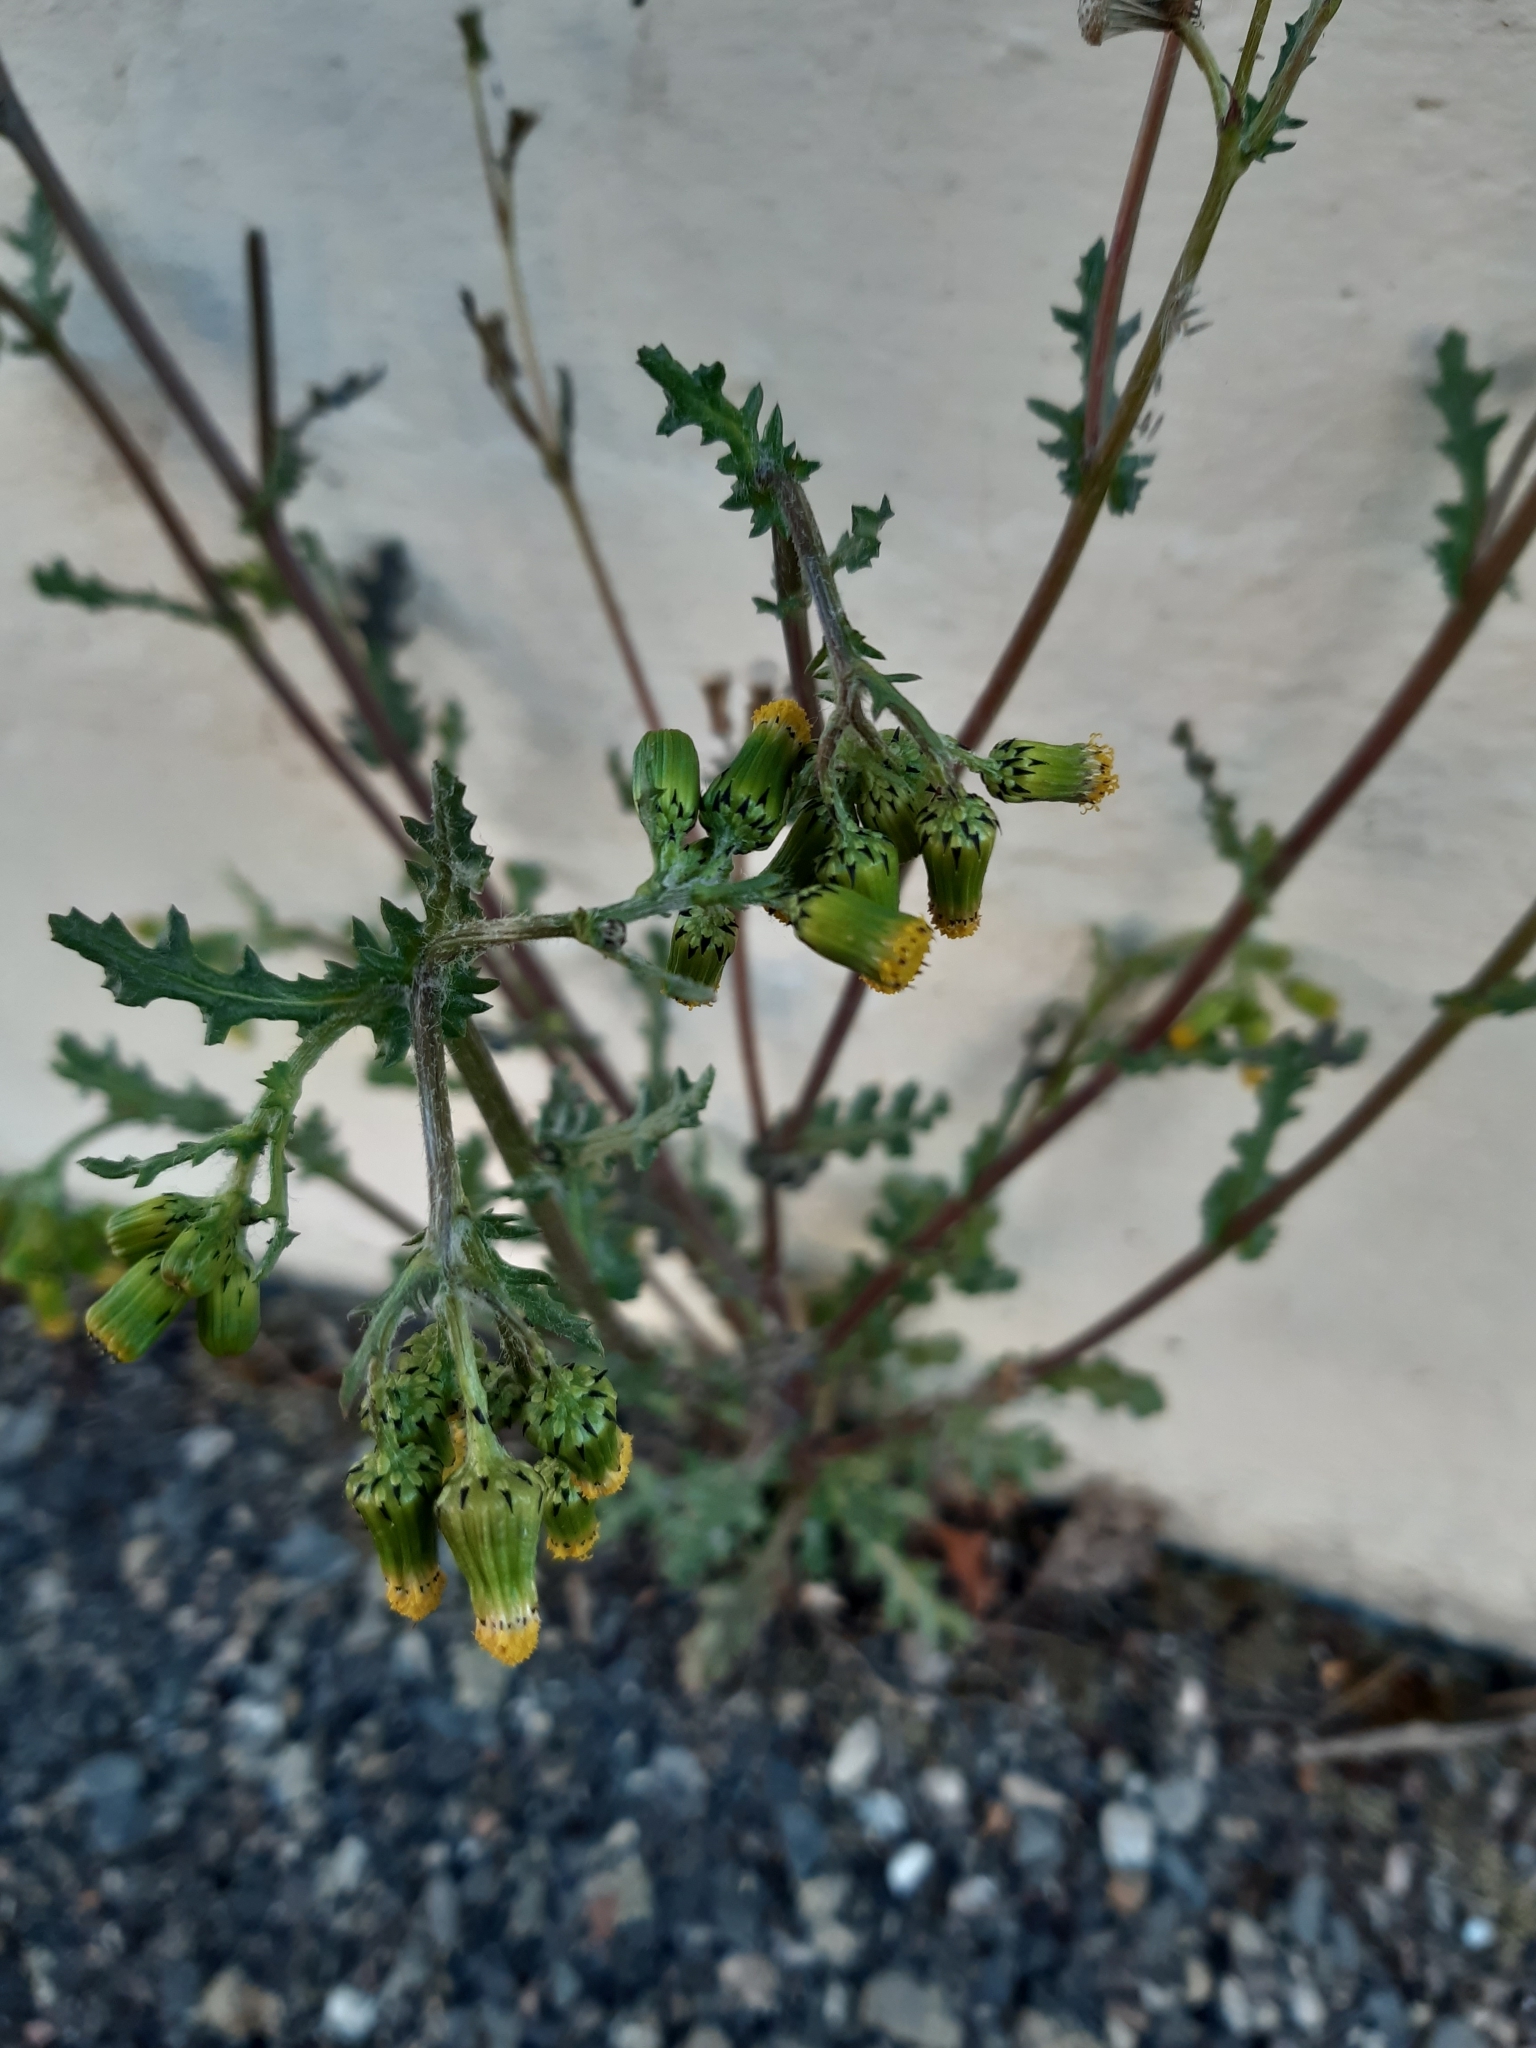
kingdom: Plantae
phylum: Tracheophyta
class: Magnoliopsida
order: Asterales
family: Asteraceae
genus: Senecio
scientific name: Senecio vulgaris
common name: Old-man-in-the-spring
